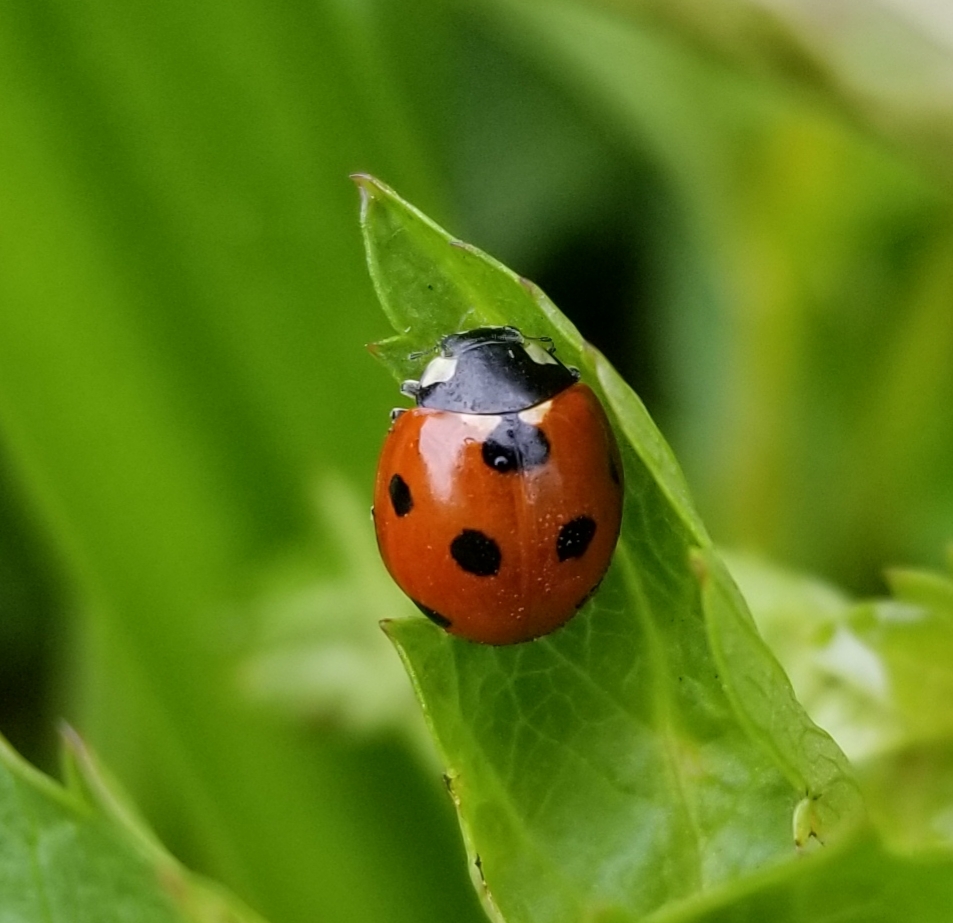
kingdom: Animalia
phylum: Arthropoda
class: Insecta
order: Coleoptera
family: Coccinellidae
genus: Coccinella
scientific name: Coccinella septempunctata
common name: Sevenspotted lady beetle
